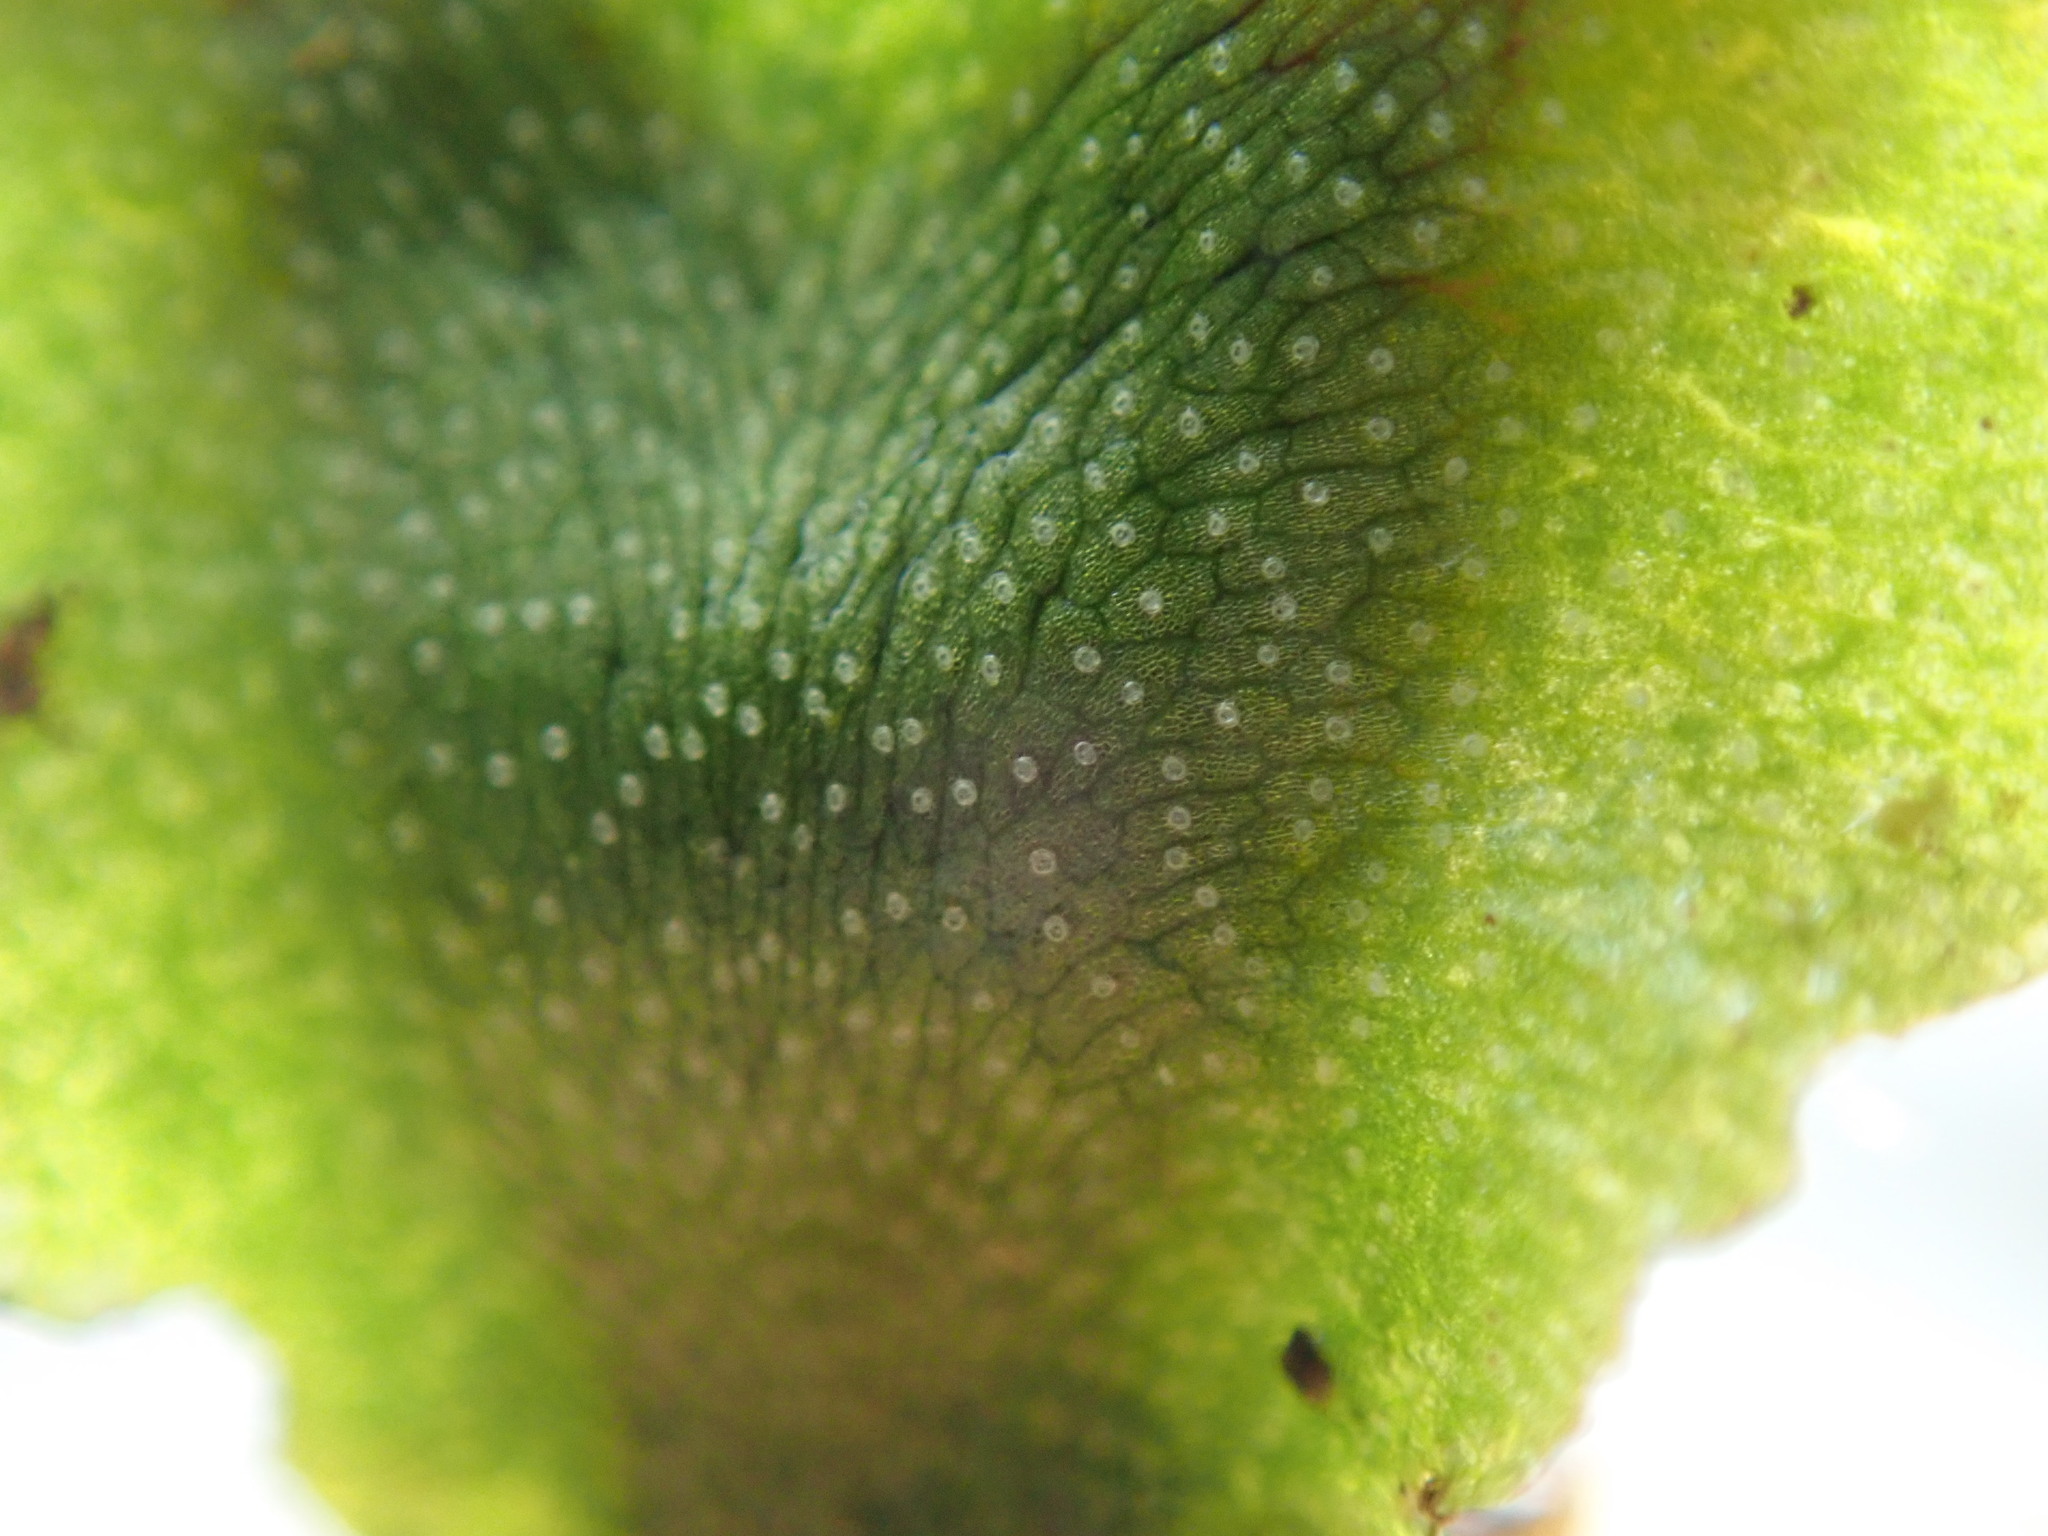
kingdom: Plantae
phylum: Marchantiophyta
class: Marchantiopsida
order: Marchantiales
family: Marchantiaceae
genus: Marchantia
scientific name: Marchantia quadrata
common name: Narrow mushroom-headed liverwort
